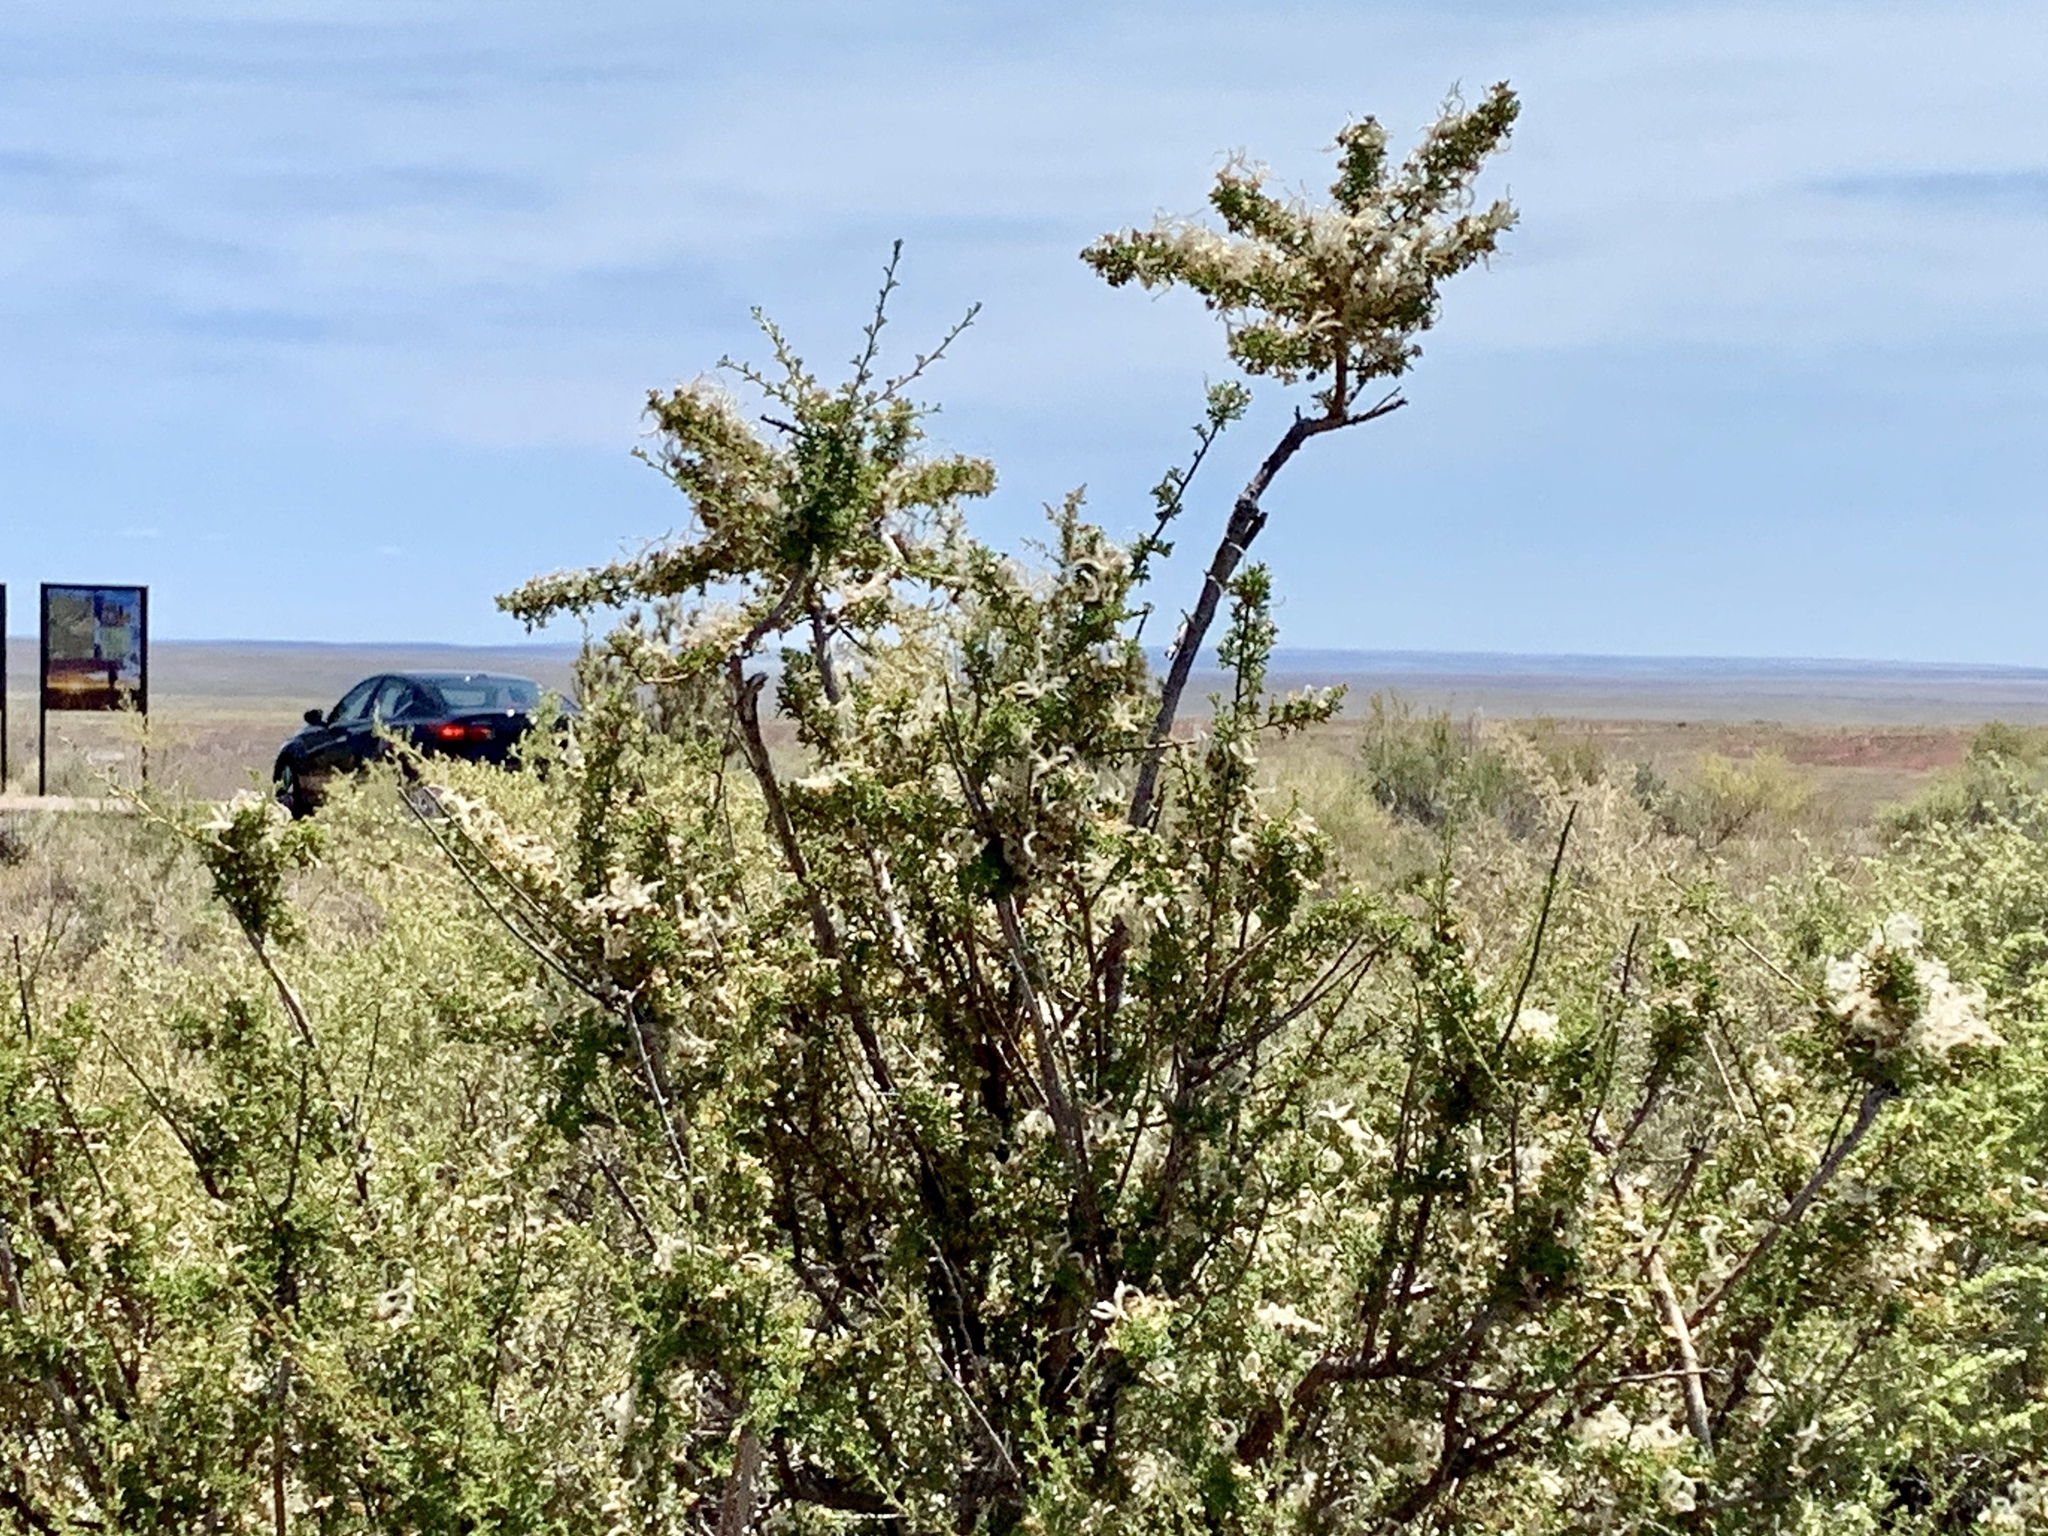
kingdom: Plantae
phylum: Tracheophyta
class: Magnoliopsida
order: Rosales
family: Rosaceae
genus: Purshia
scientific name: Purshia stansburiana
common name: Stansbury's cliffrose
